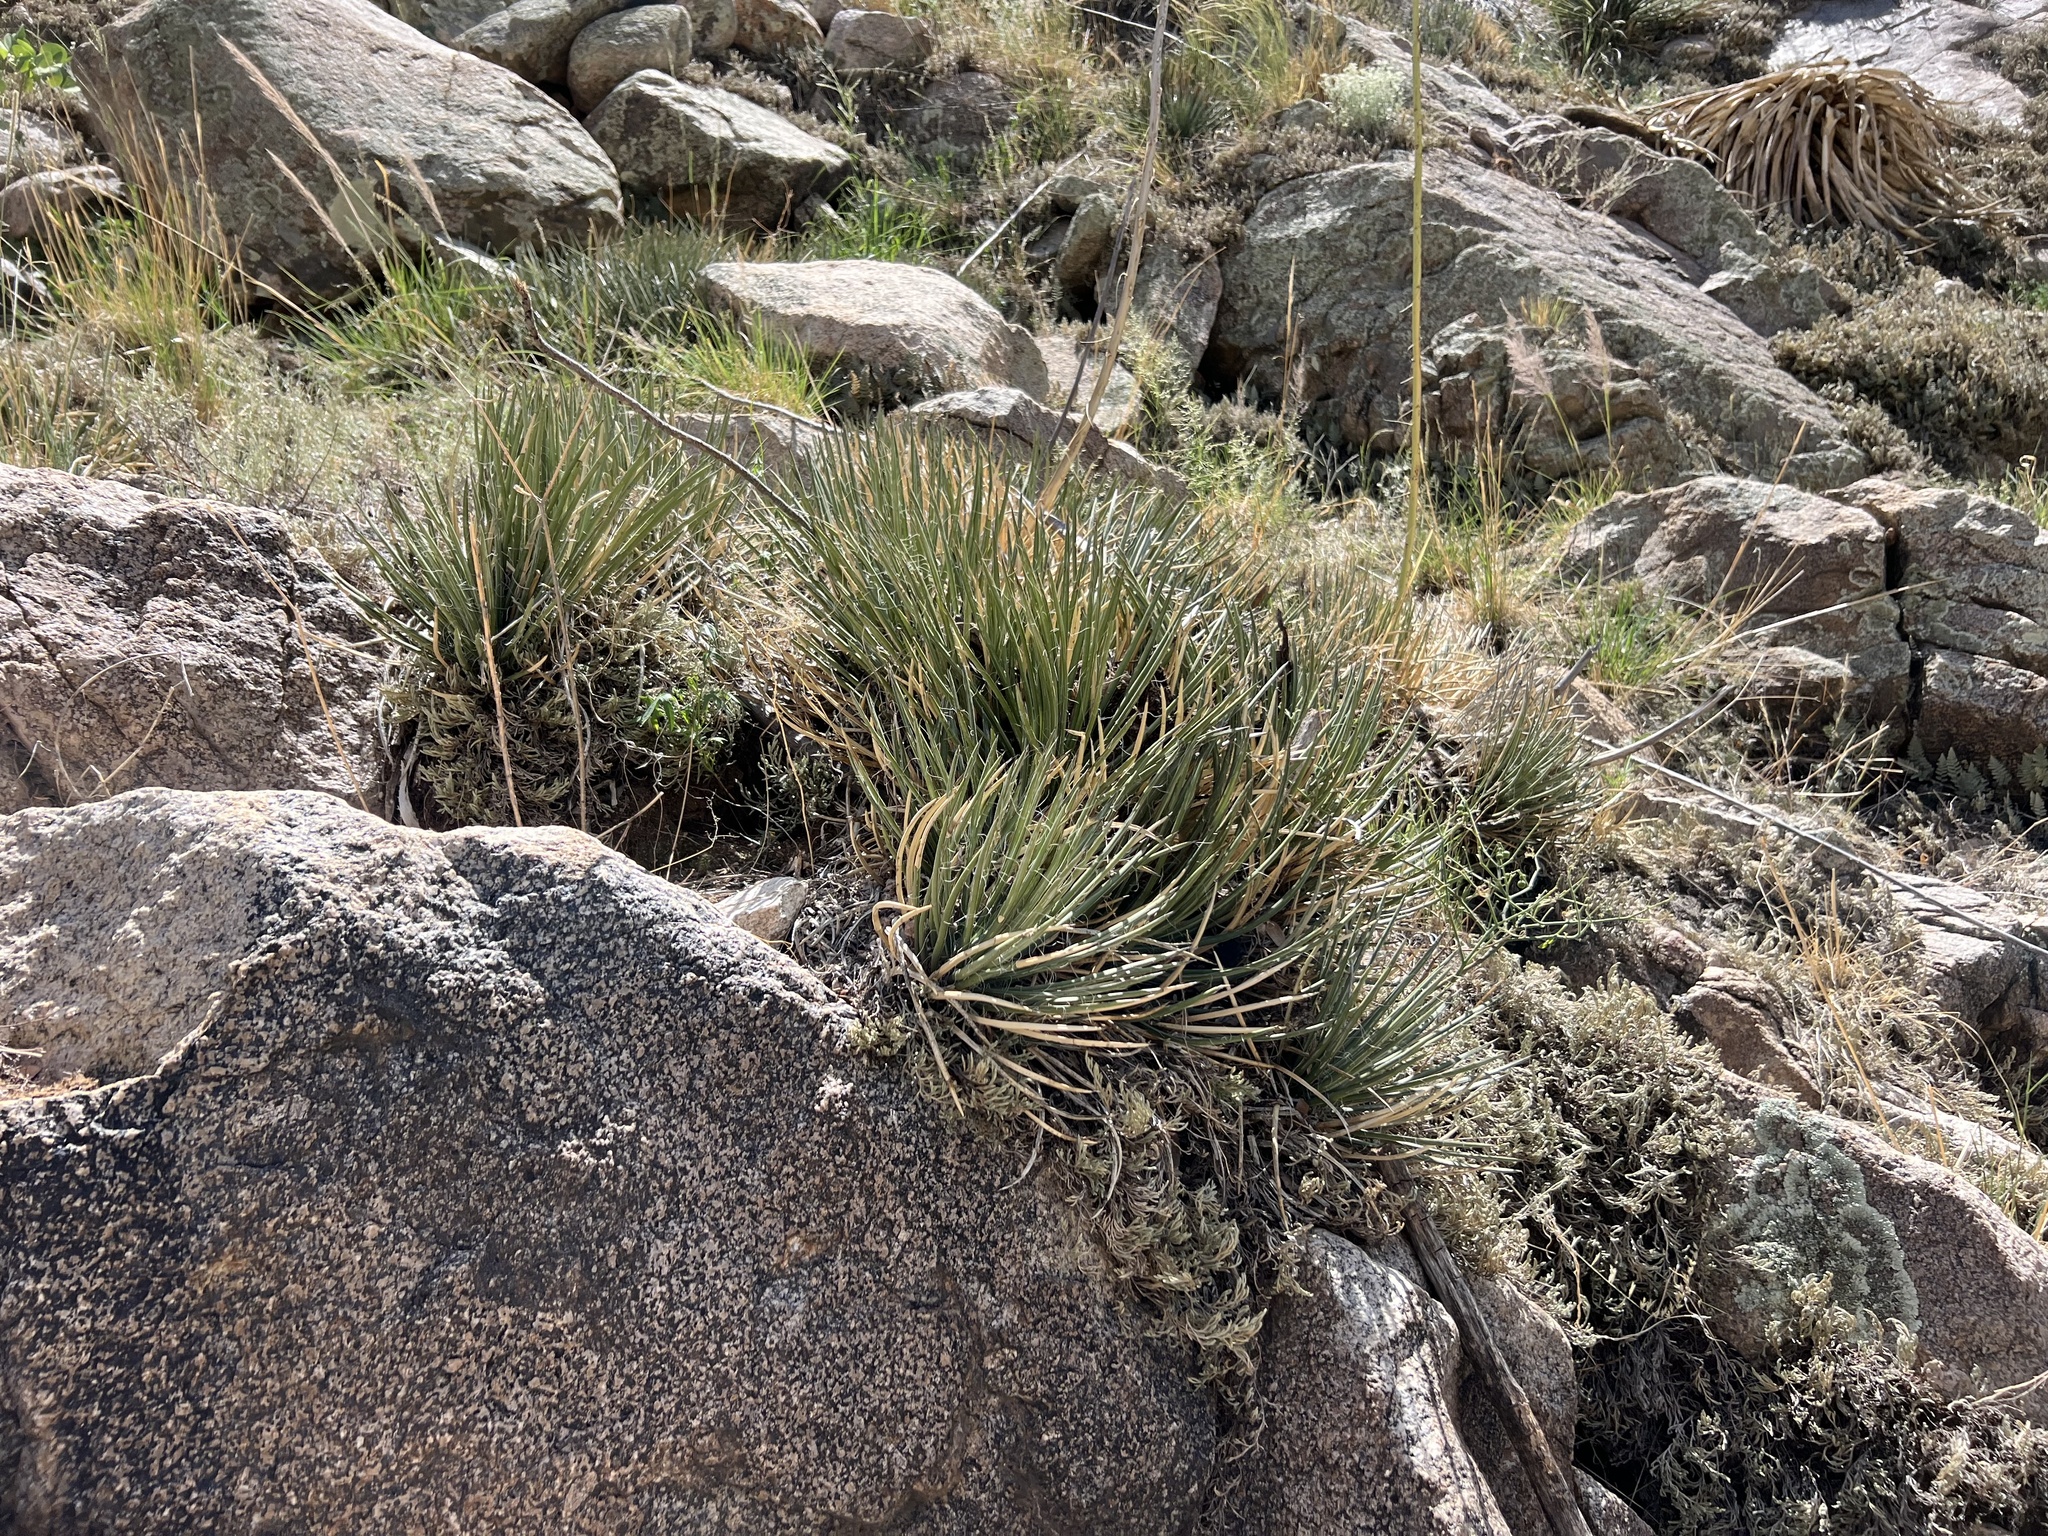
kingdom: Plantae
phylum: Tracheophyta
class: Liliopsida
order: Asparagales
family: Asparagaceae
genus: Agave
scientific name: Agave schottii
